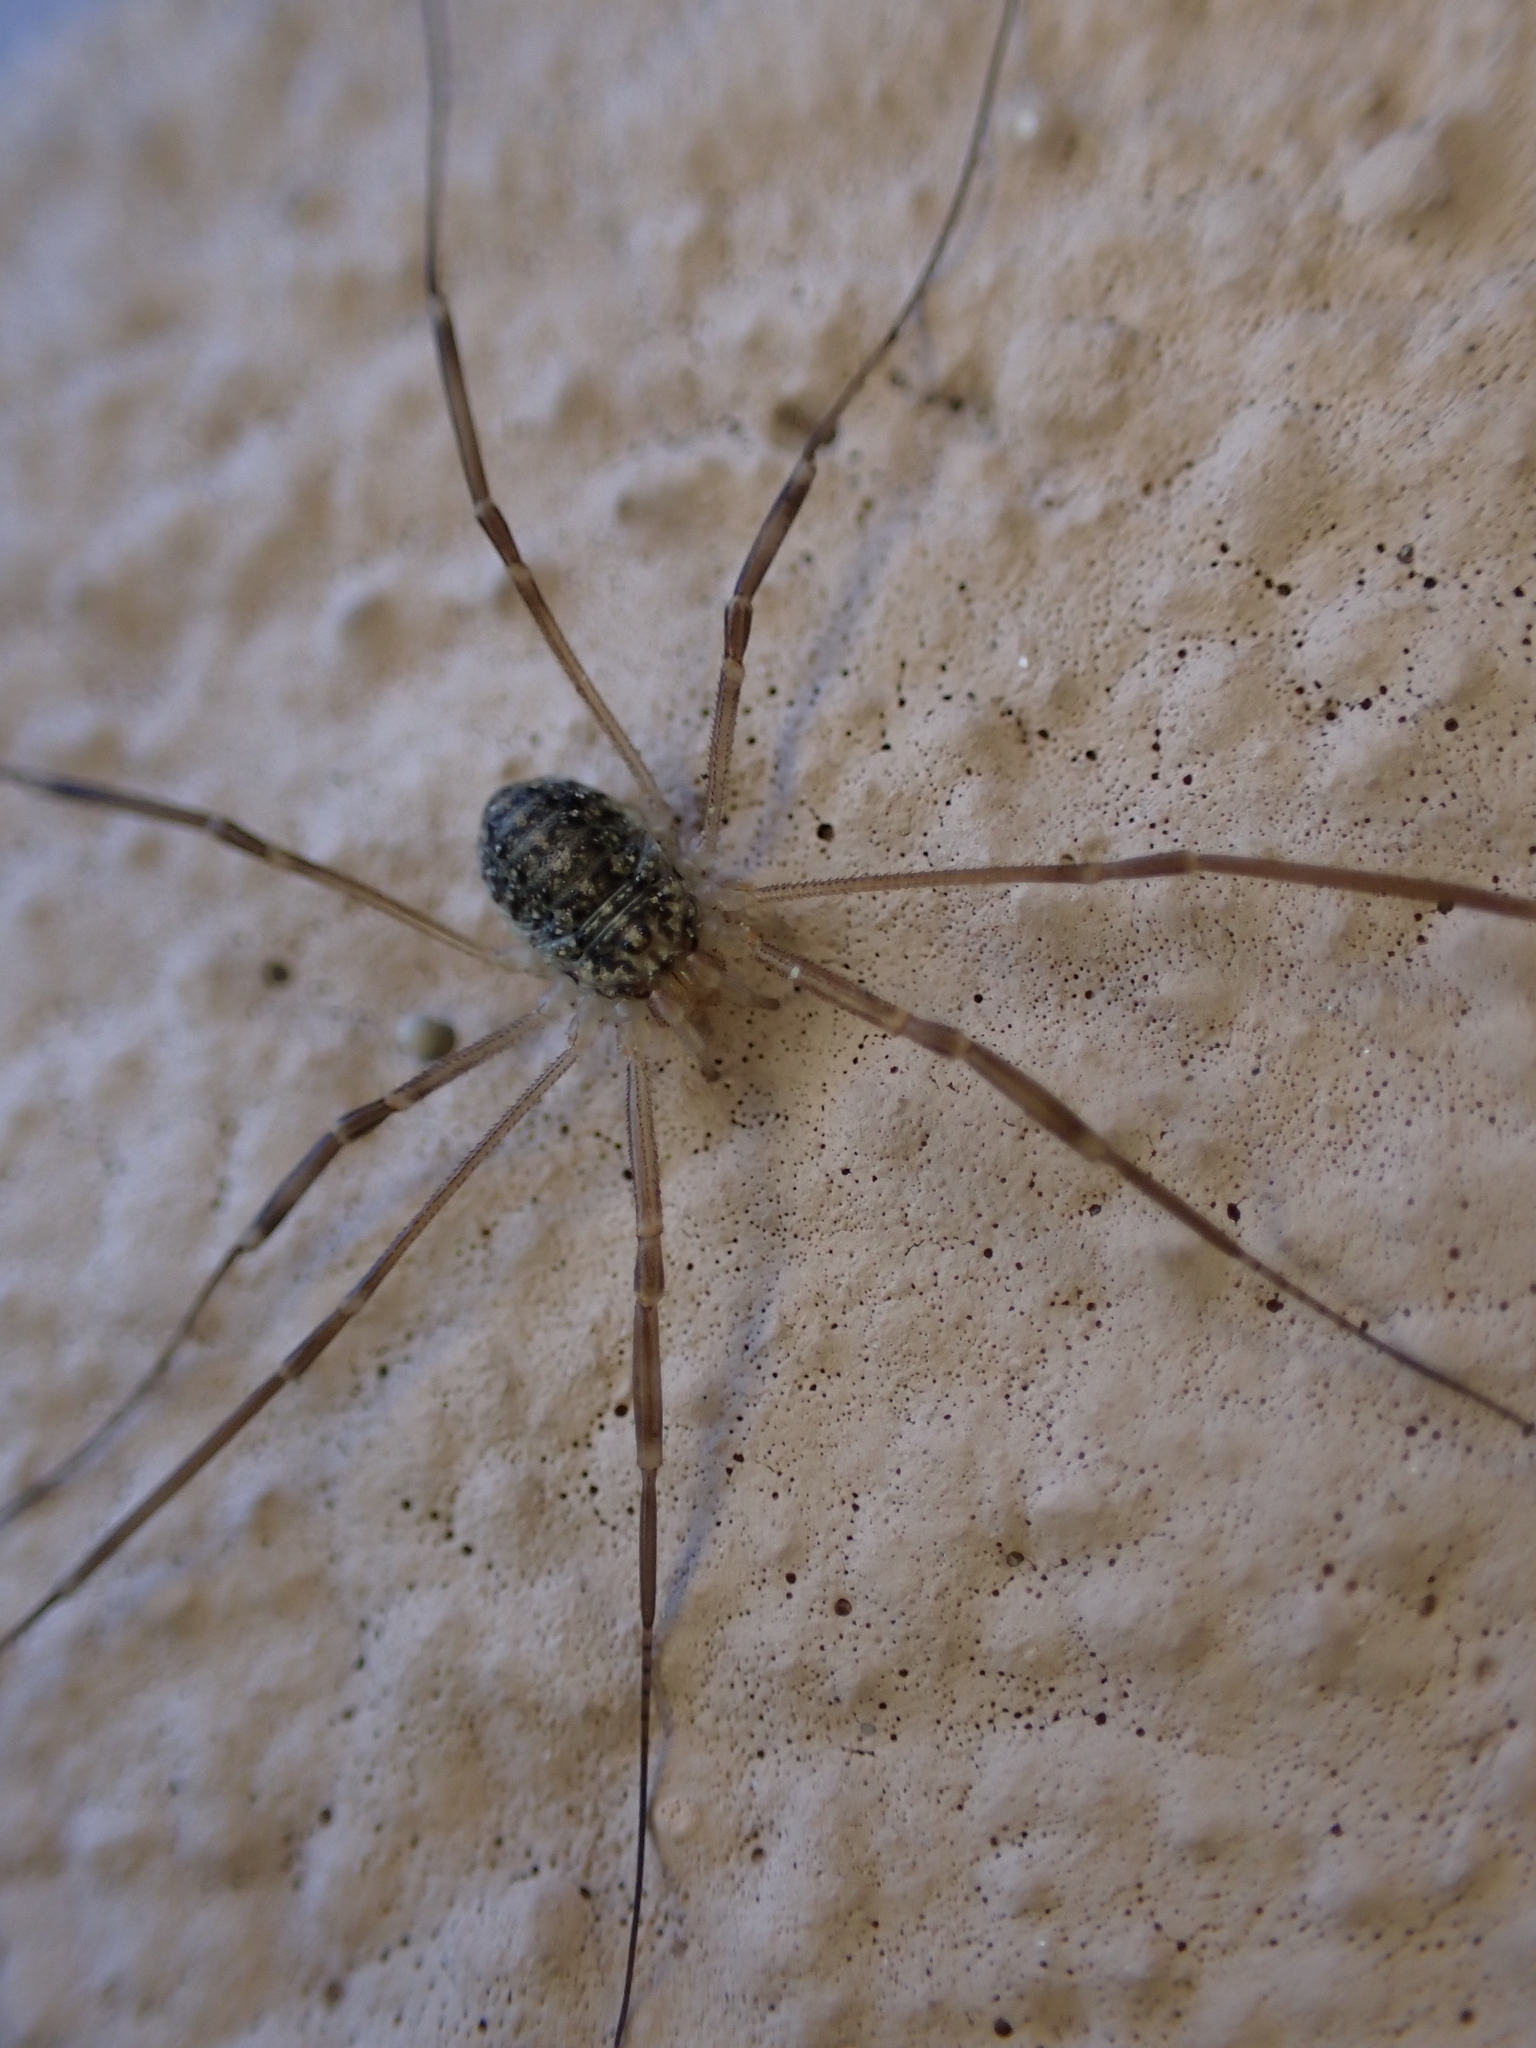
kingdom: Animalia
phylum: Arthropoda
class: Arachnida
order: Opiliones
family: Phalangiidae
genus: Opilio
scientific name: Opilio saxatilis
